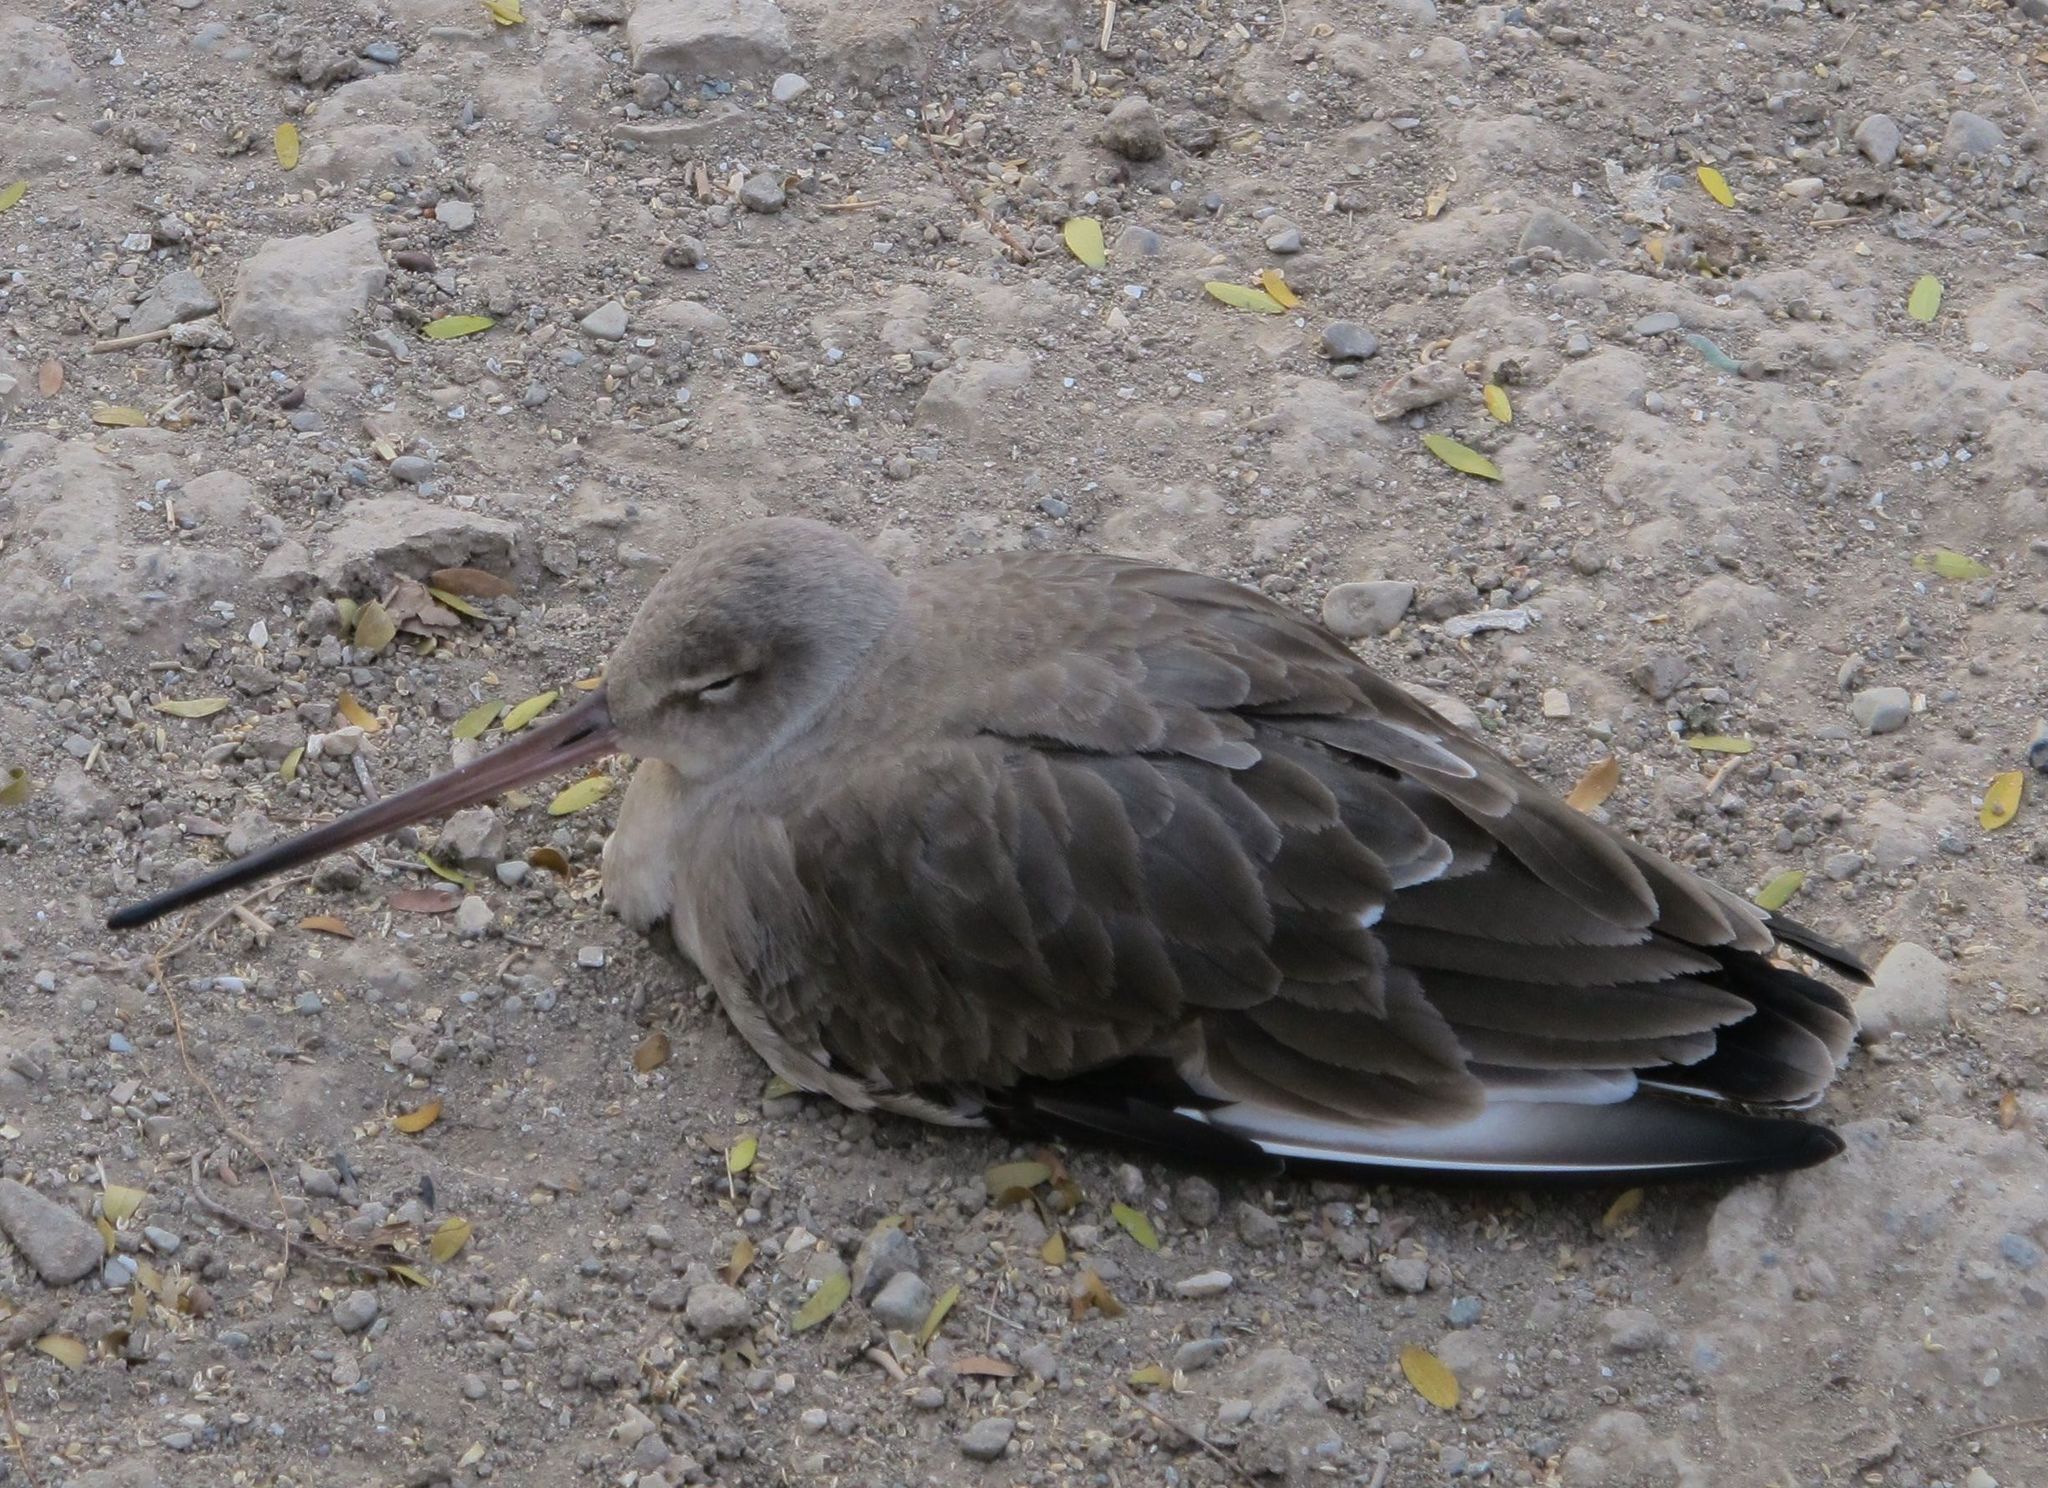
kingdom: Animalia
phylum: Chordata
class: Aves
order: Charadriiformes
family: Scolopacidae
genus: Limosa
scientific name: Limosa limosa
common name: Black-tailed godwit
